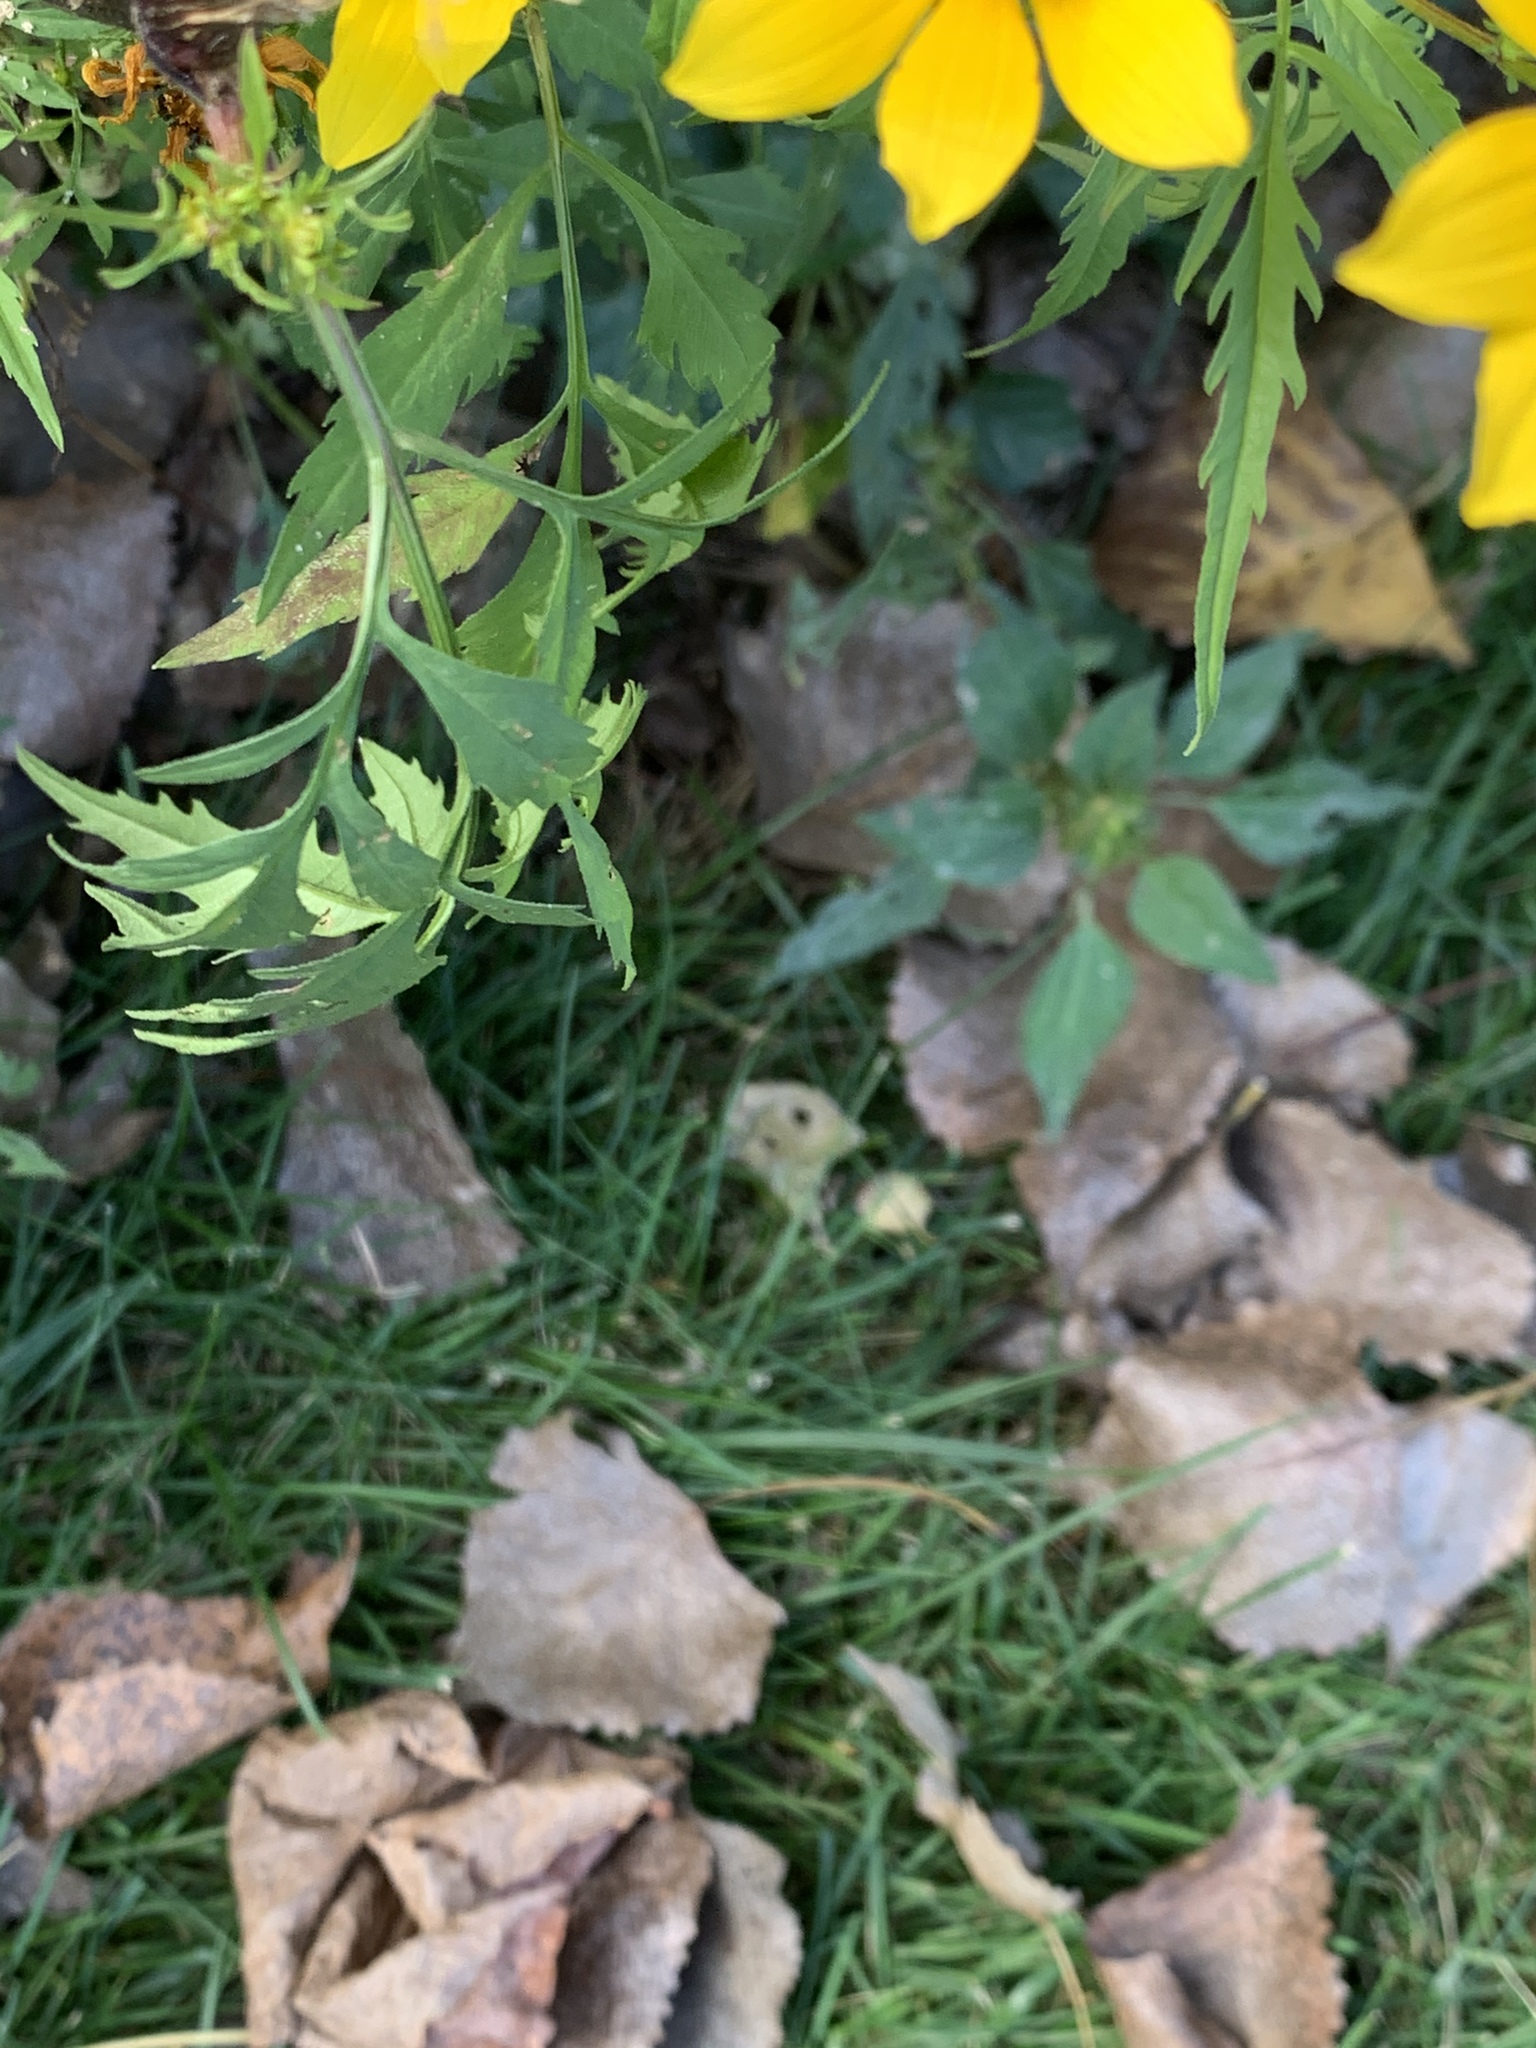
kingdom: Plantae
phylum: Tracheophyta
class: Magnoliopsida
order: Asterales
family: Asteraceae
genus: Bidens
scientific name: Bidens polylepis
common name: Awnless beggarticks
